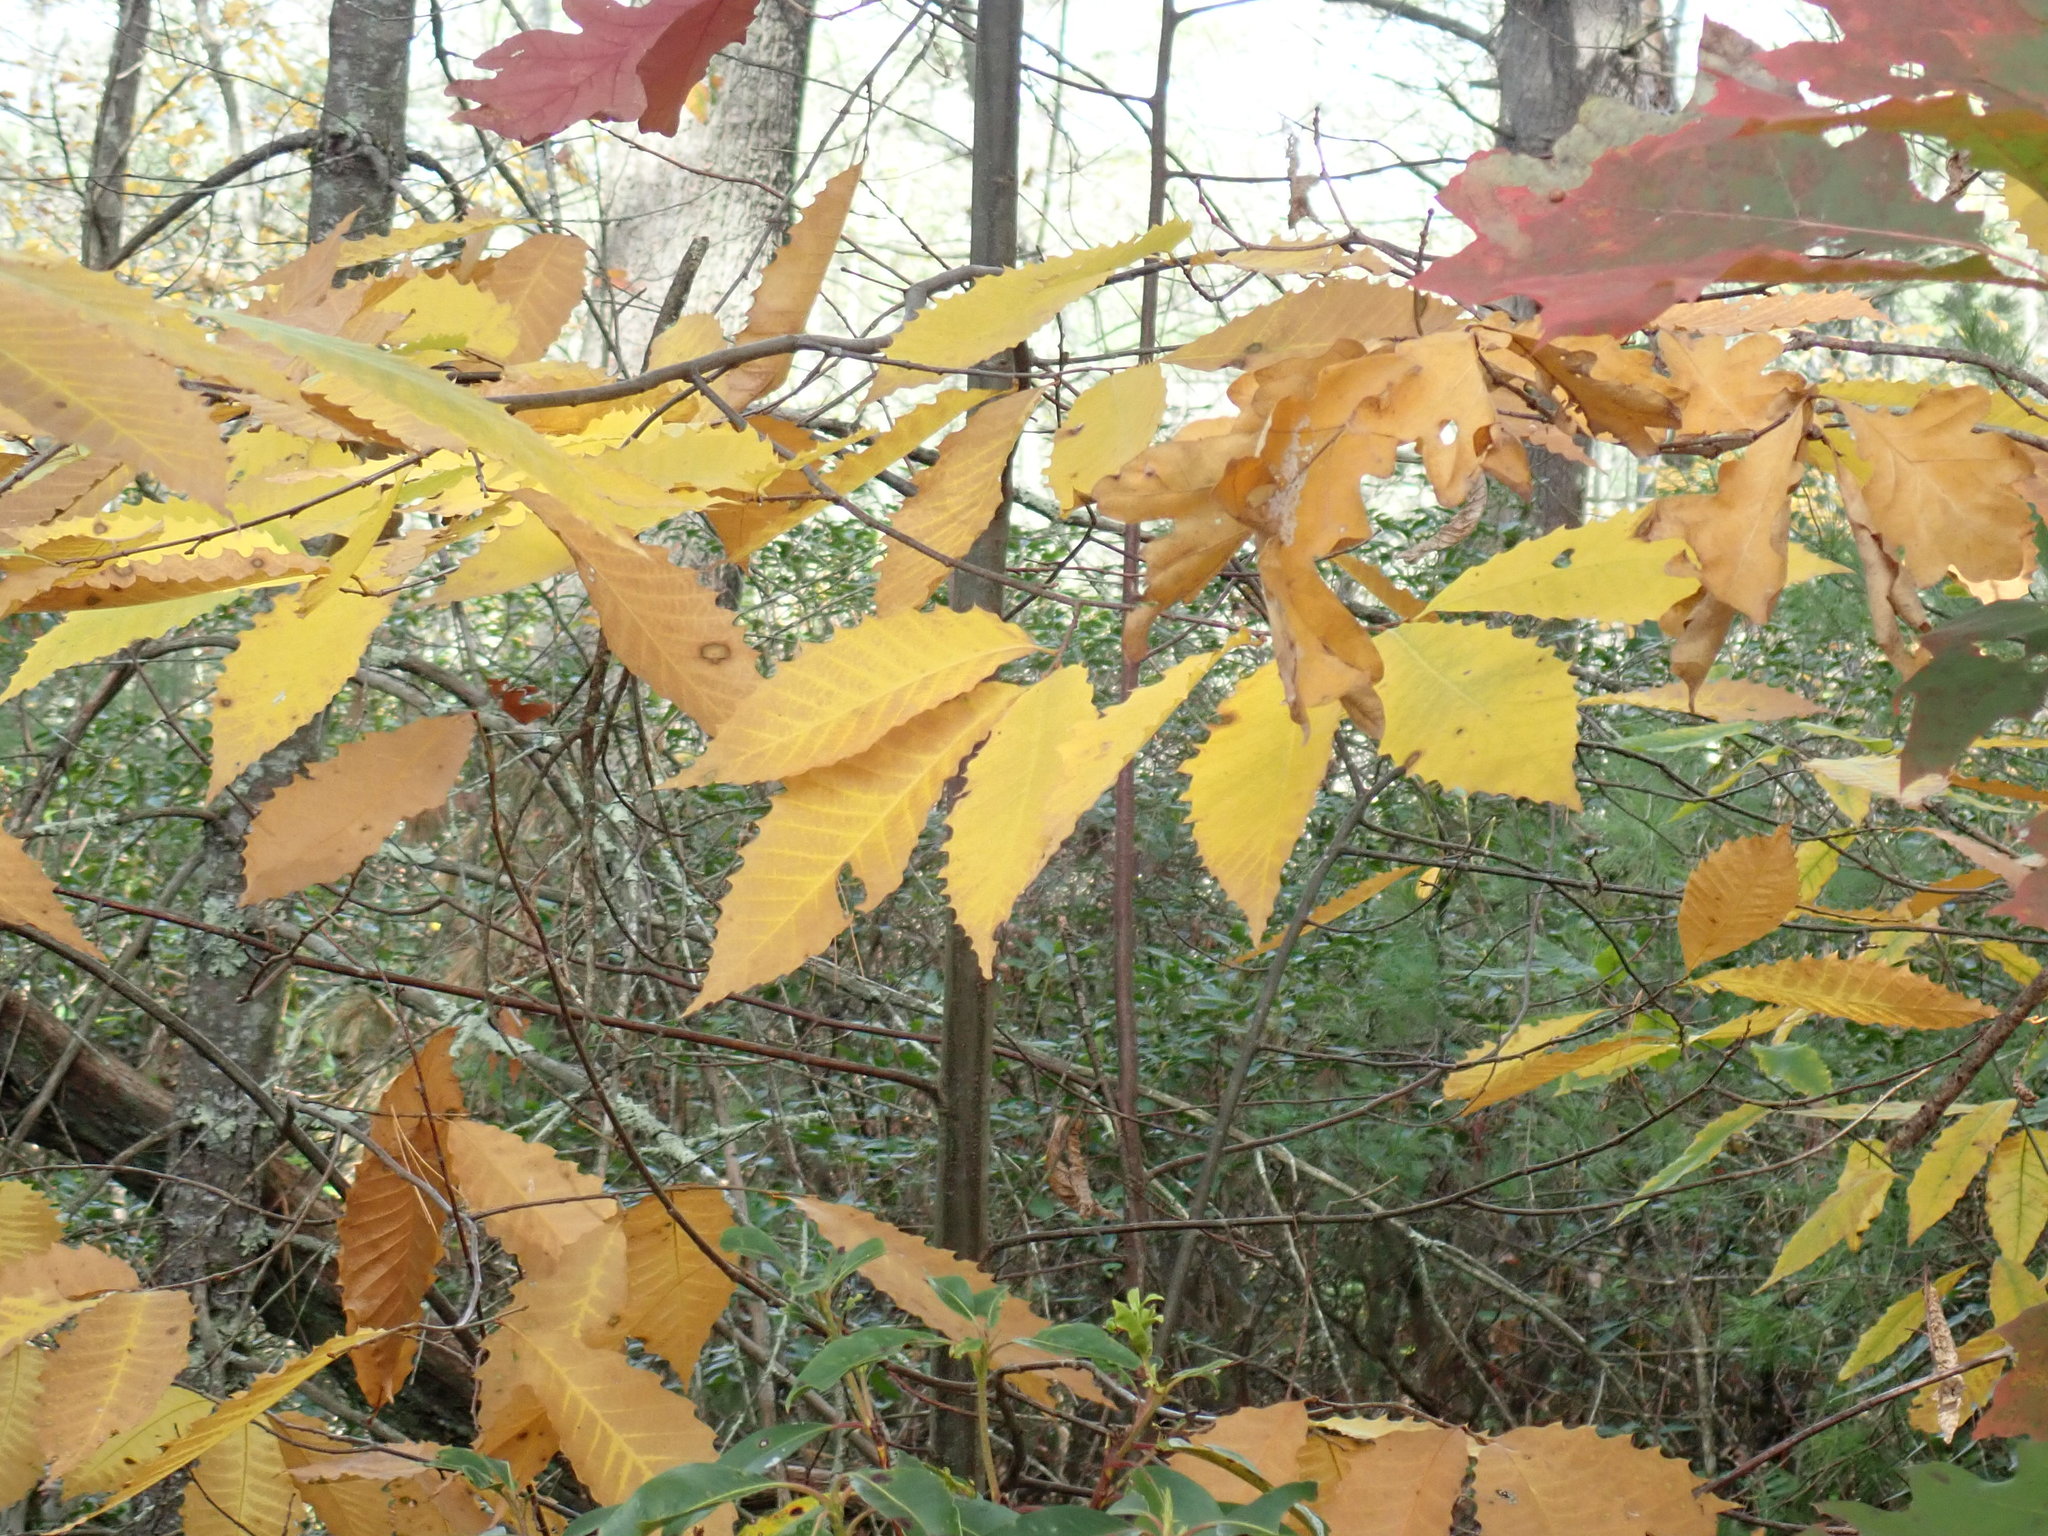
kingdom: Plantae
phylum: Tracheophyta
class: Magnoliopsida
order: Fagales
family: Fagaceae
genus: Castanea
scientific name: Castanea dentata
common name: American chestnut
